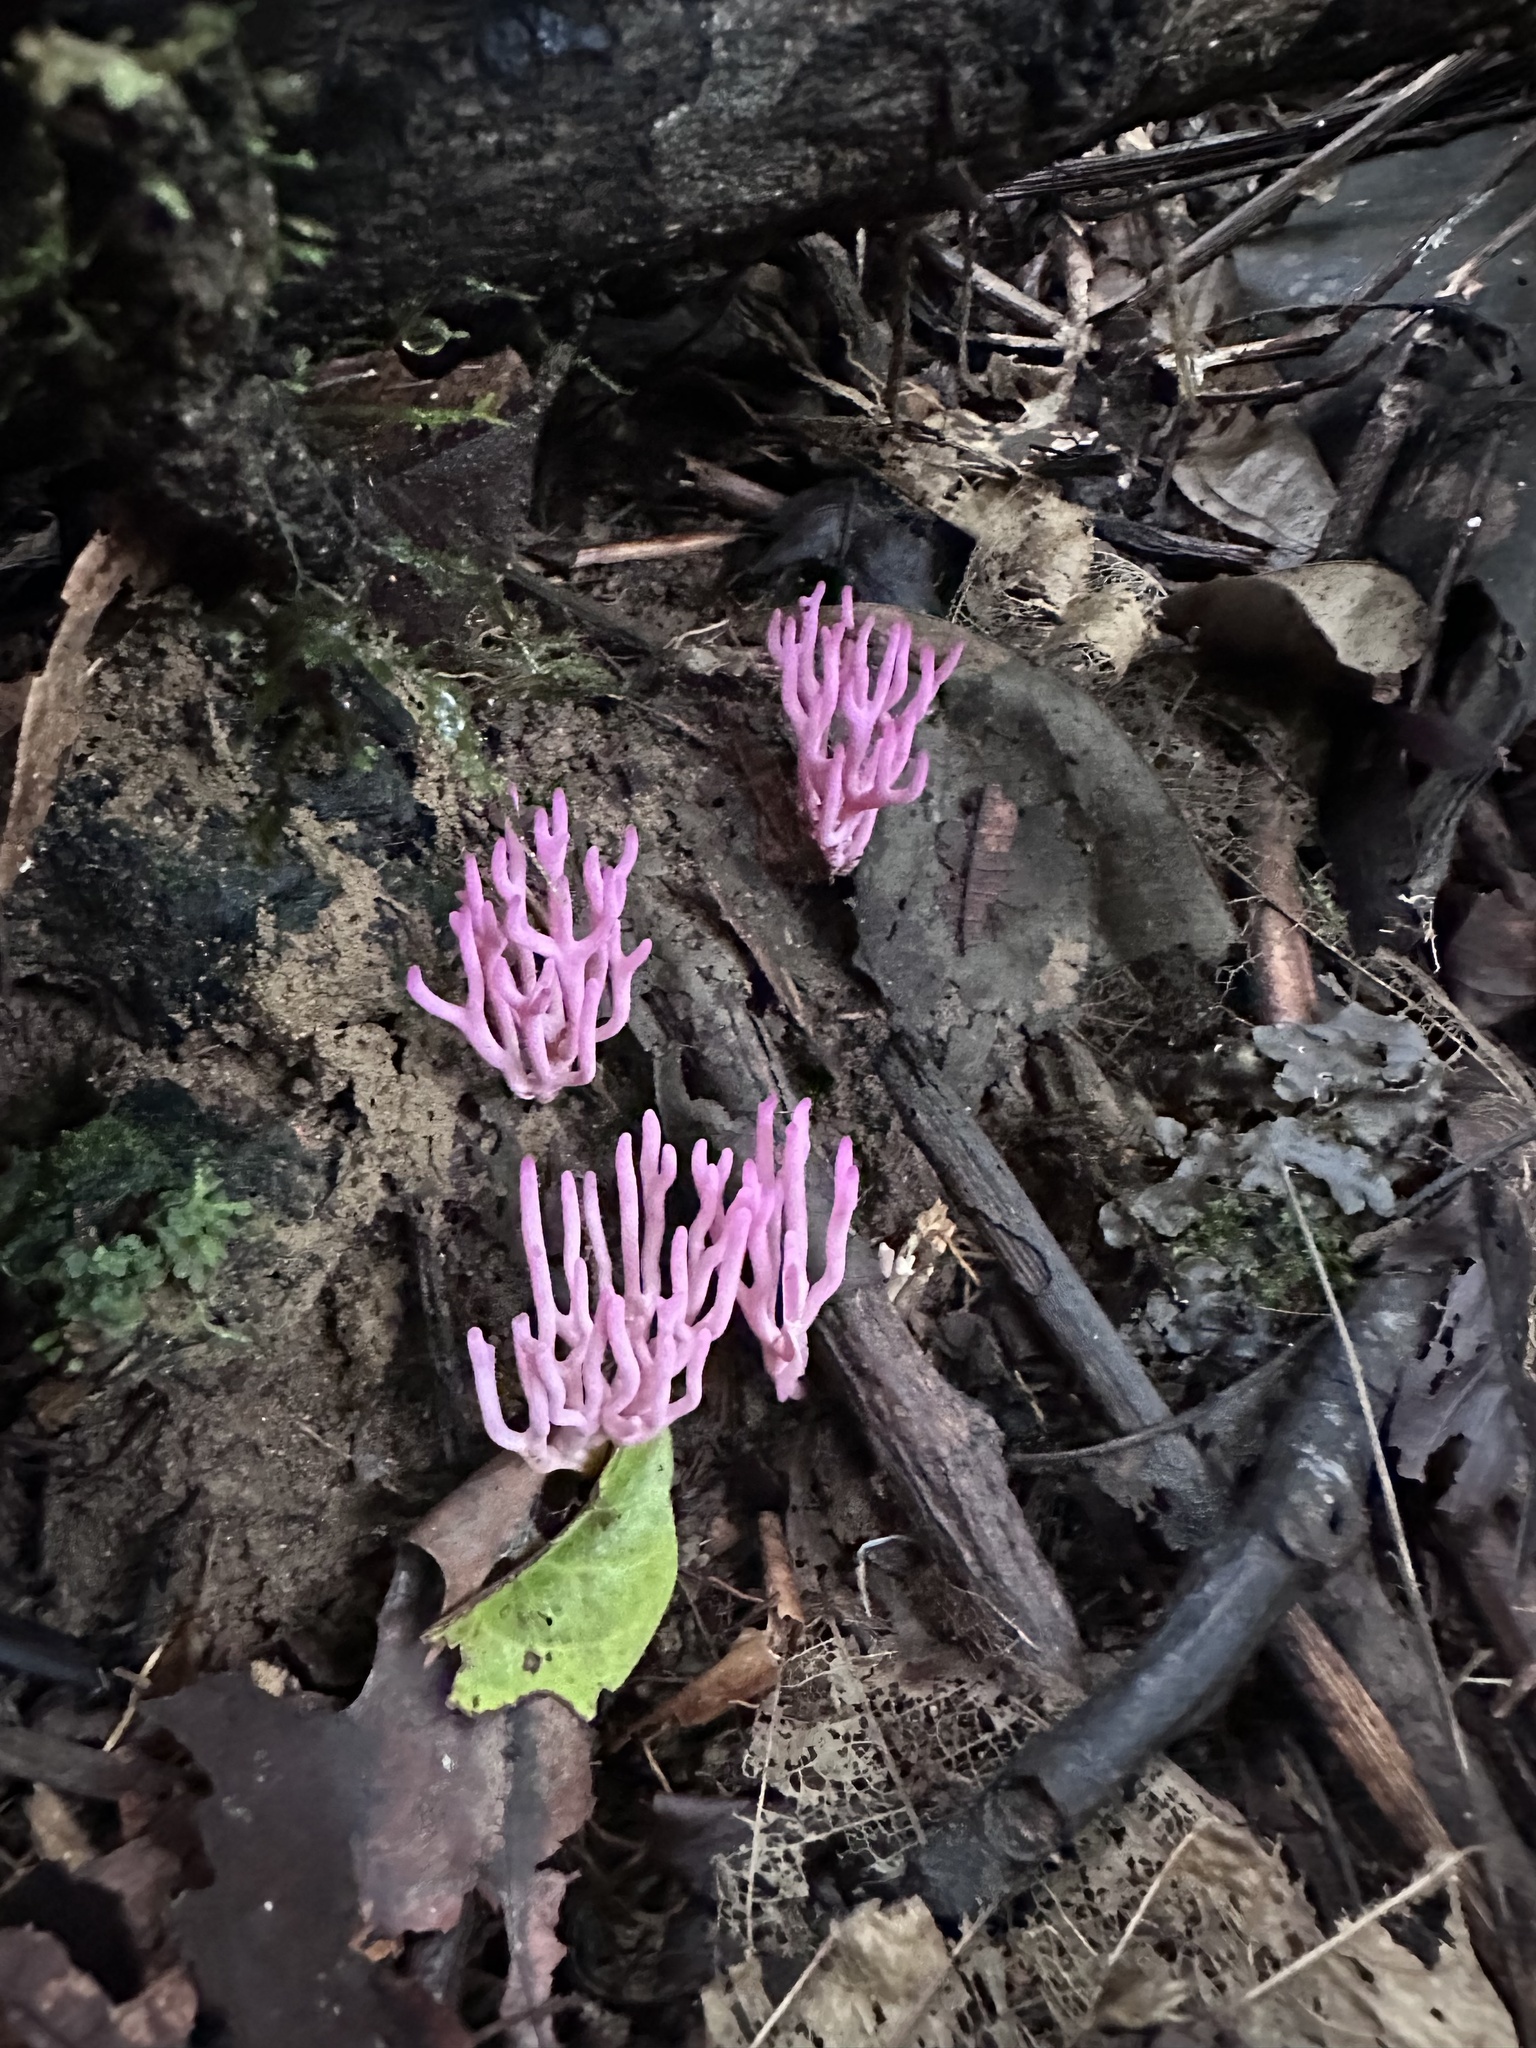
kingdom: Fungi
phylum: Basidiomycota
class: Agaricomycetes
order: Agaricales
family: Clavariaceae
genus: Clavaria
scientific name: Clavaria zollingeri
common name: Violet coral
